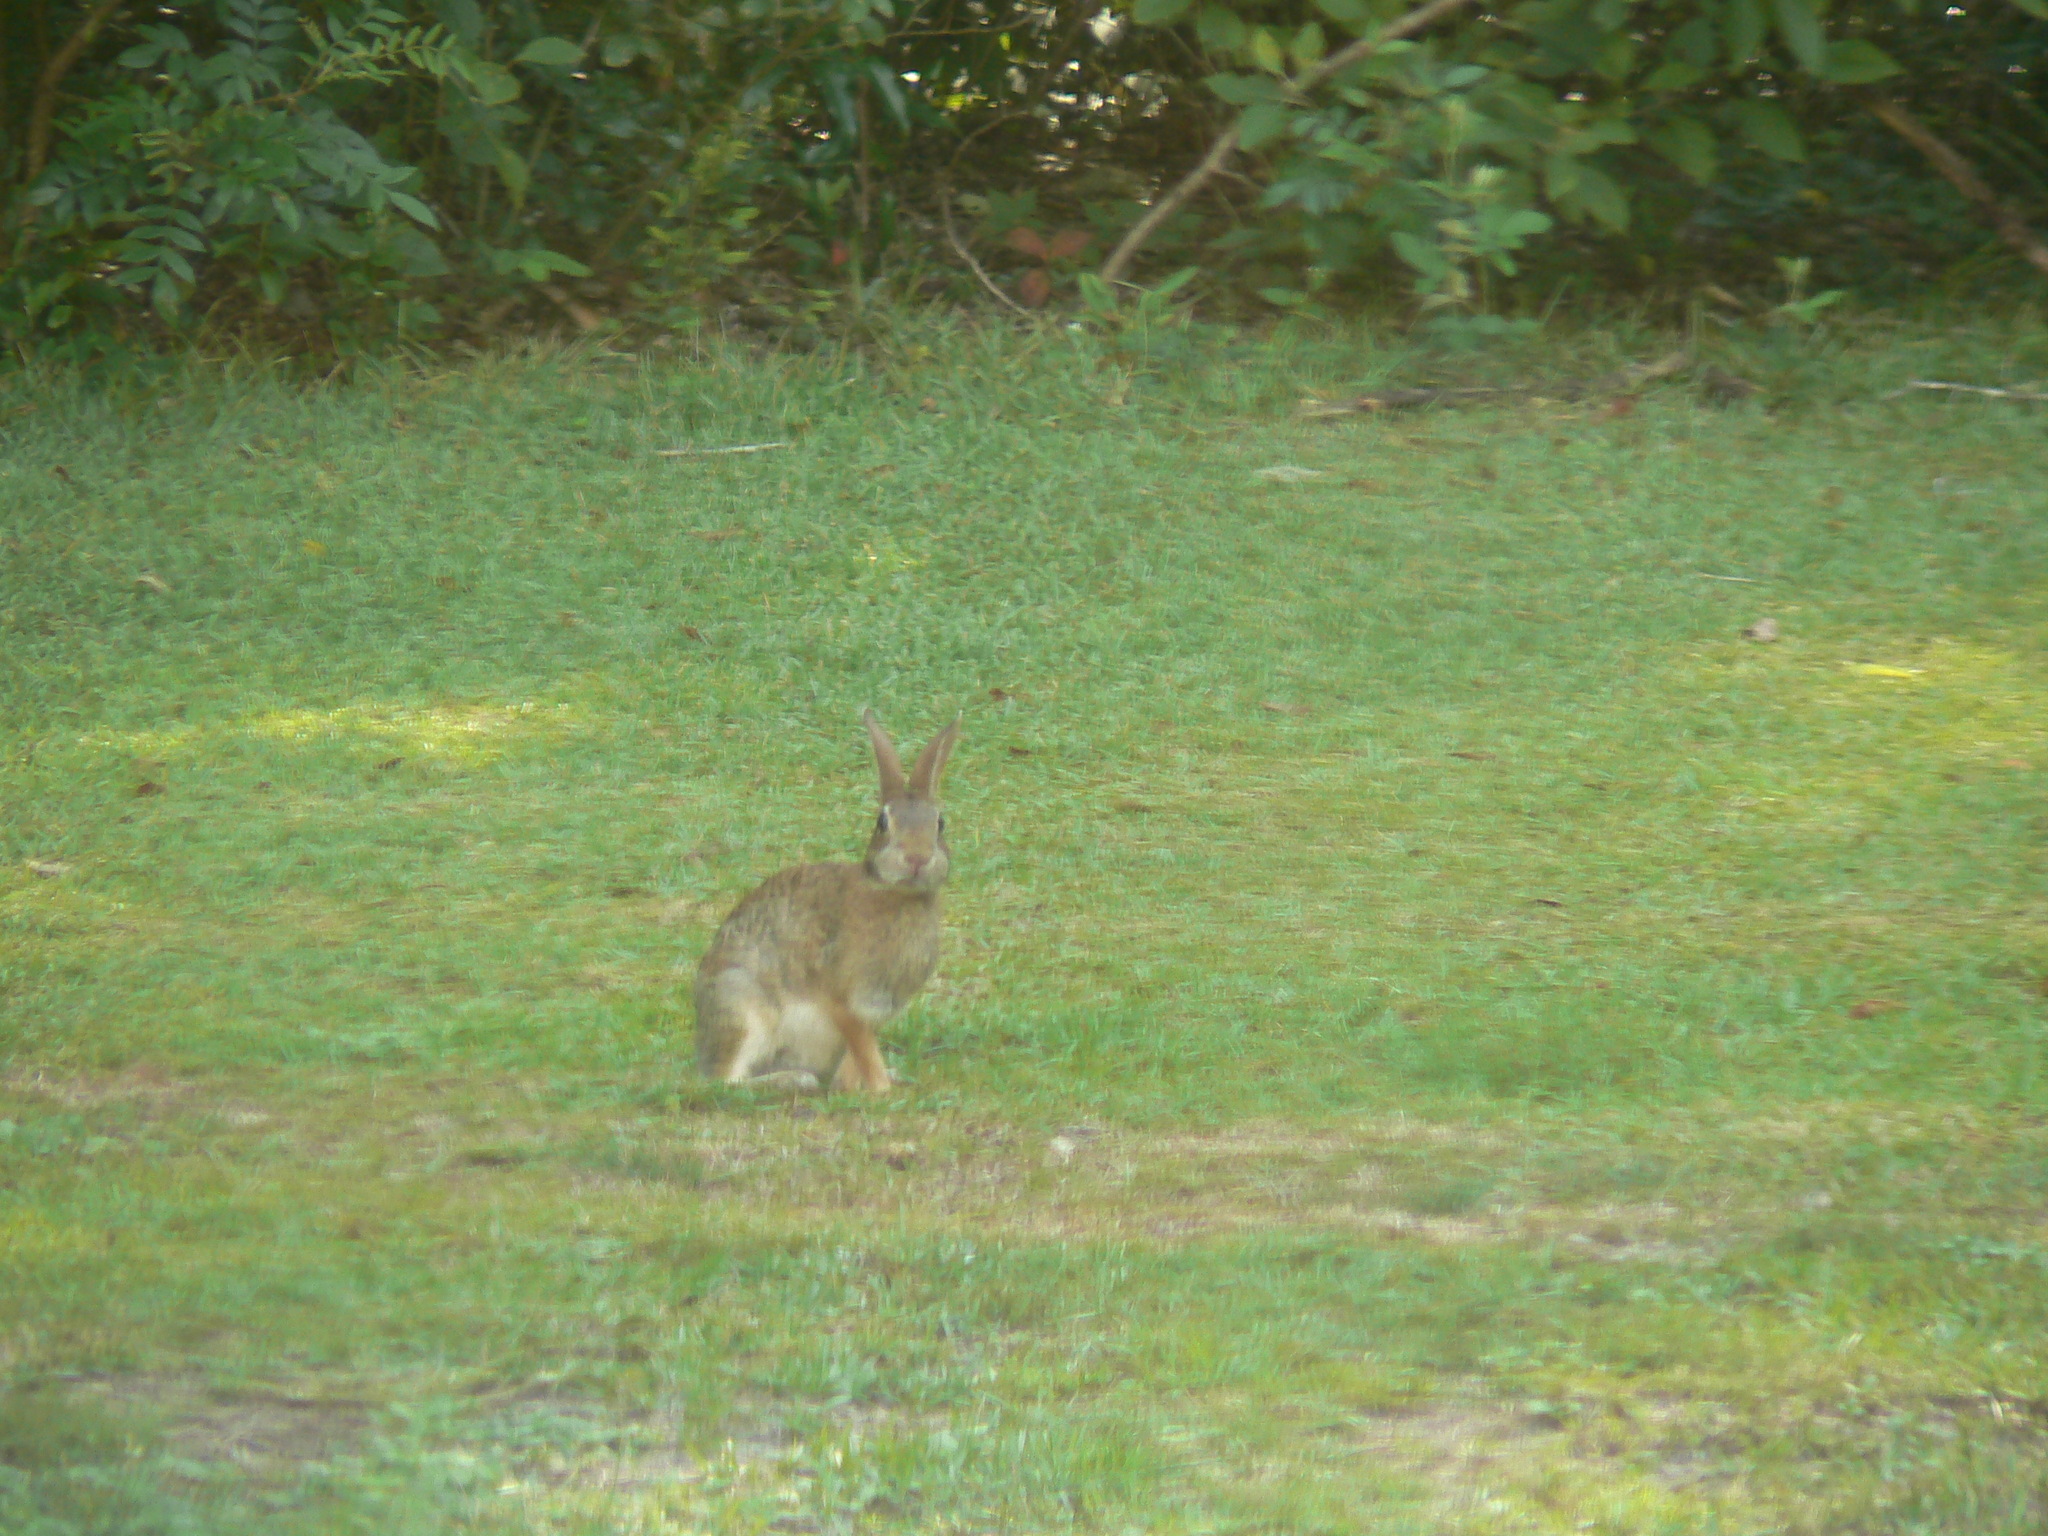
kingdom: Animalia
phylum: Chordata
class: Mammalia
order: Lagomorpha
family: Leporidae
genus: Sylvilagus
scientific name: Sylvilagus floridanus
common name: Eastern cottontail
